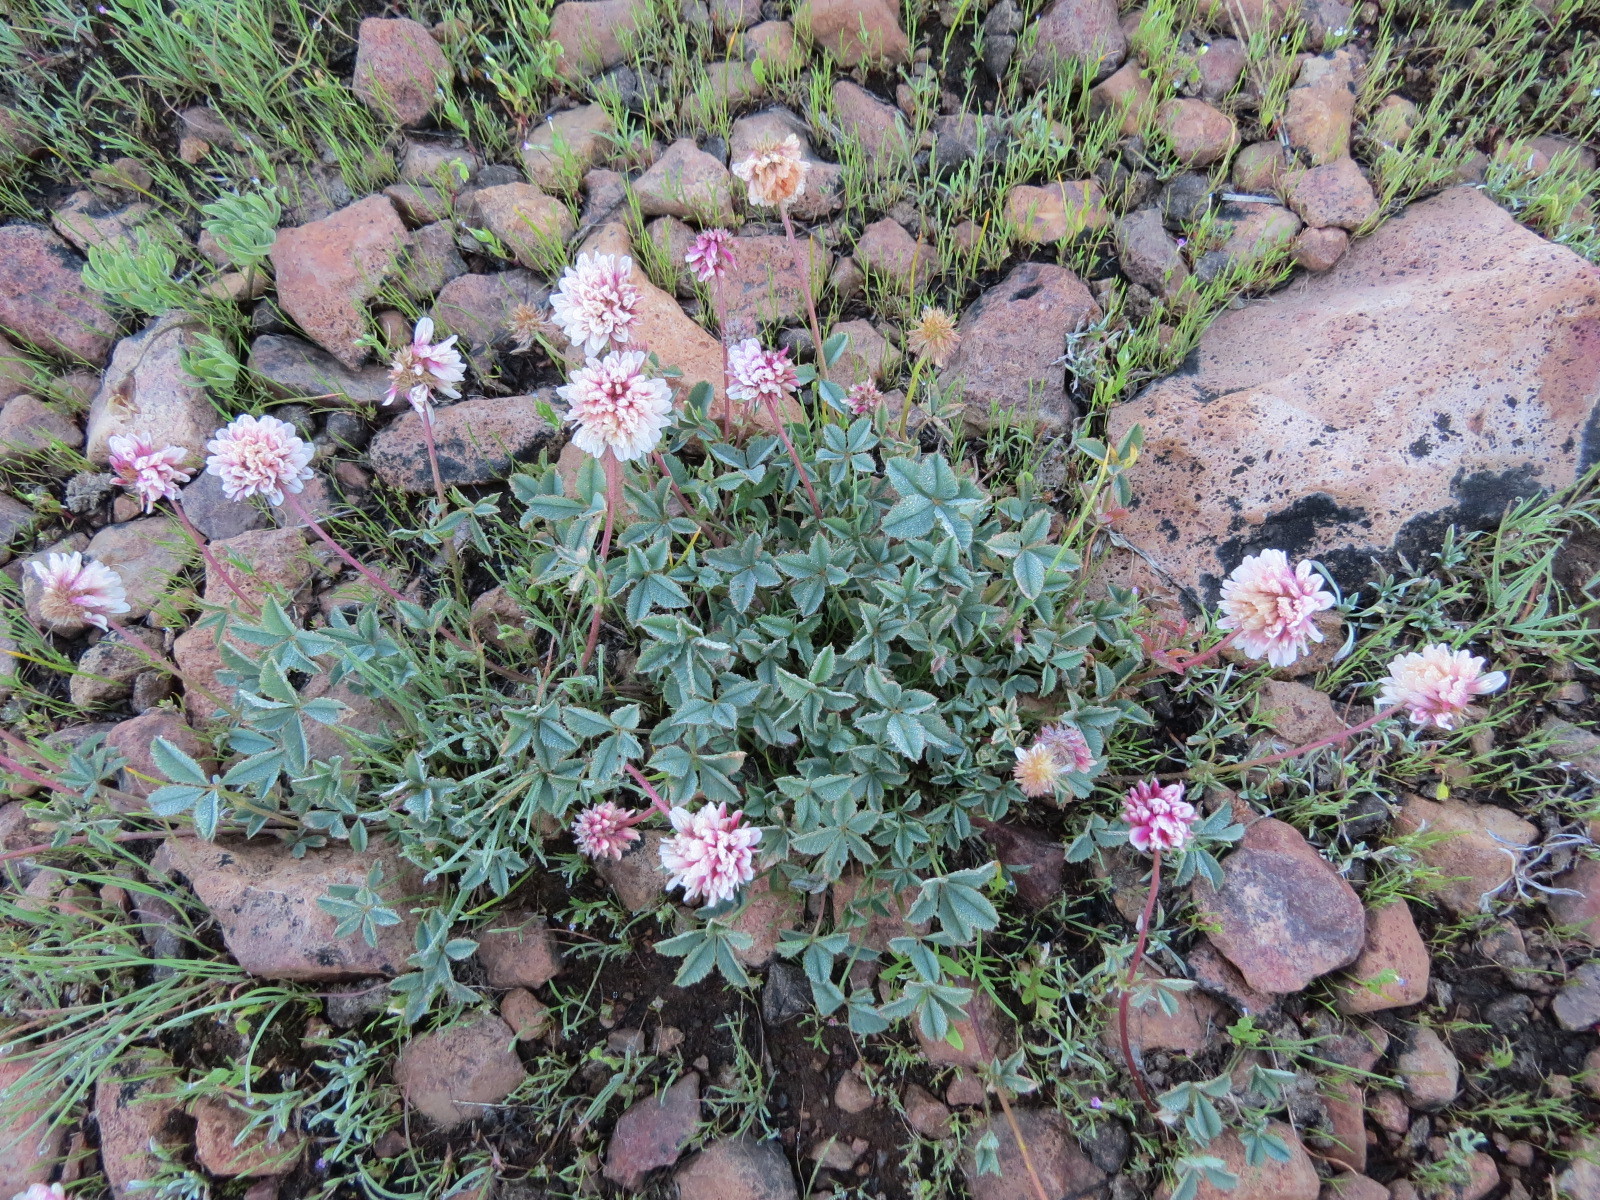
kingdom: Plantae
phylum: Tracheophyta
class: Magnoliopsida
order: Fabales
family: Fabaceae
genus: Trifolium
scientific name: Trifolium lemmonii
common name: Lemmon's clover
